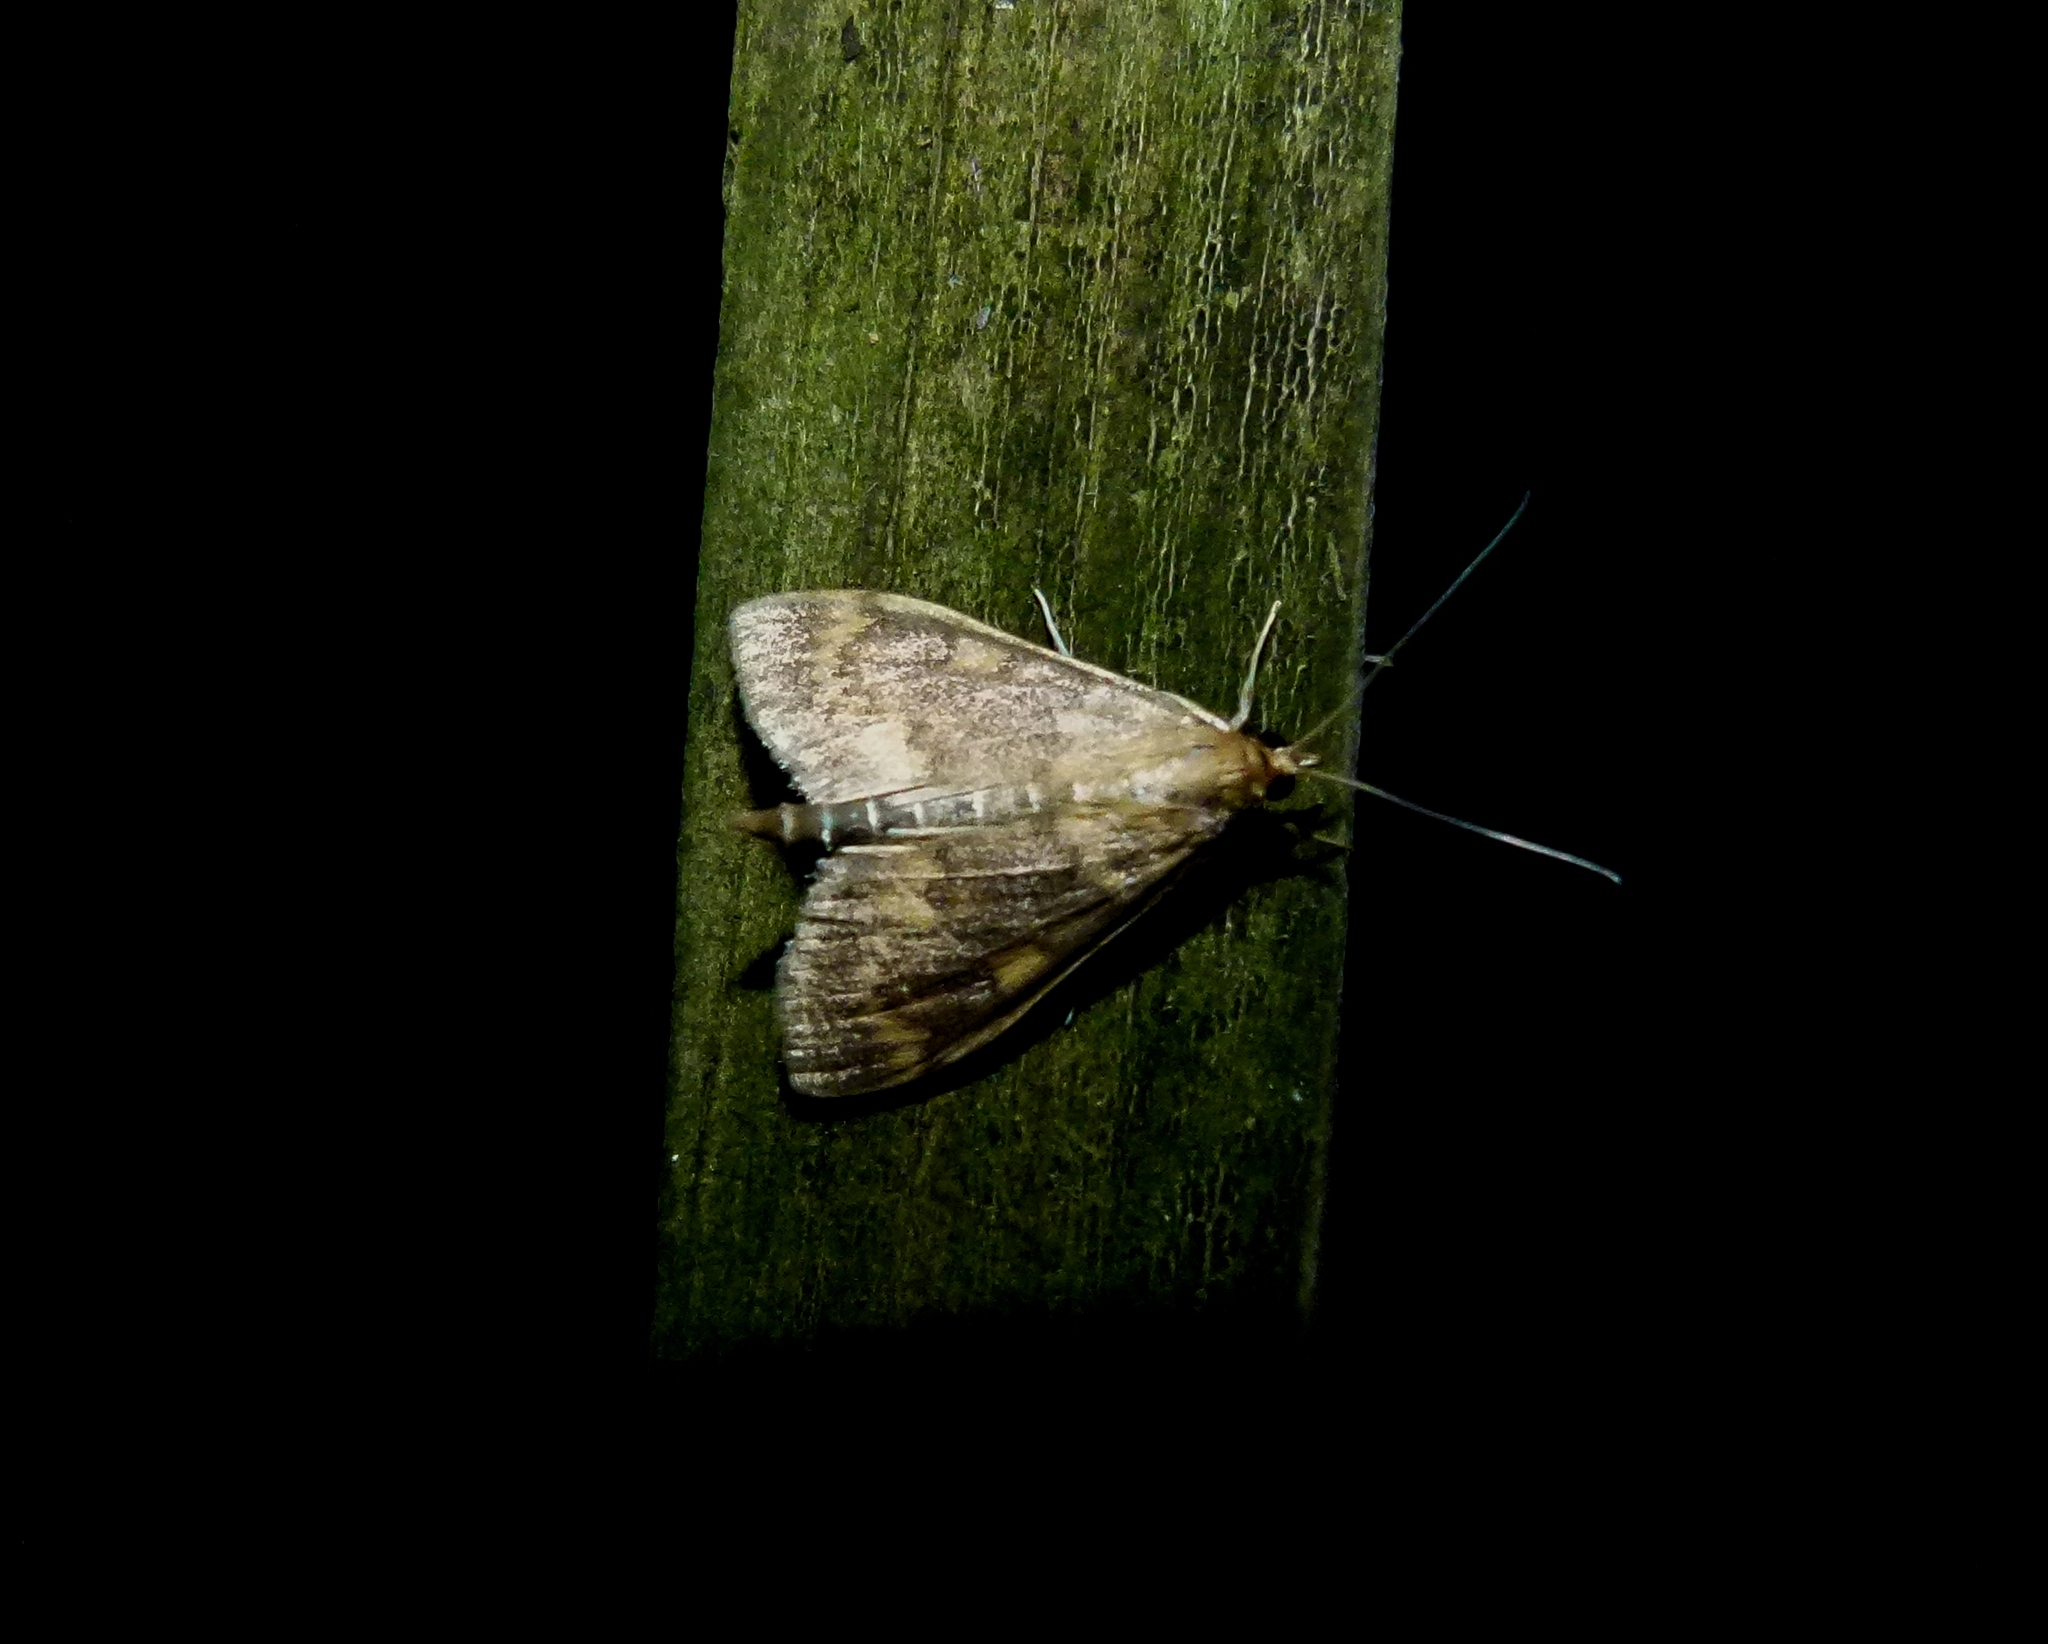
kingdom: Animalia
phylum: Arthropoda
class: Insecta
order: Lepidoptera
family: Crambidae
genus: Ostrinia
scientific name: Ostrinia nubilalis
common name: European corn borer
